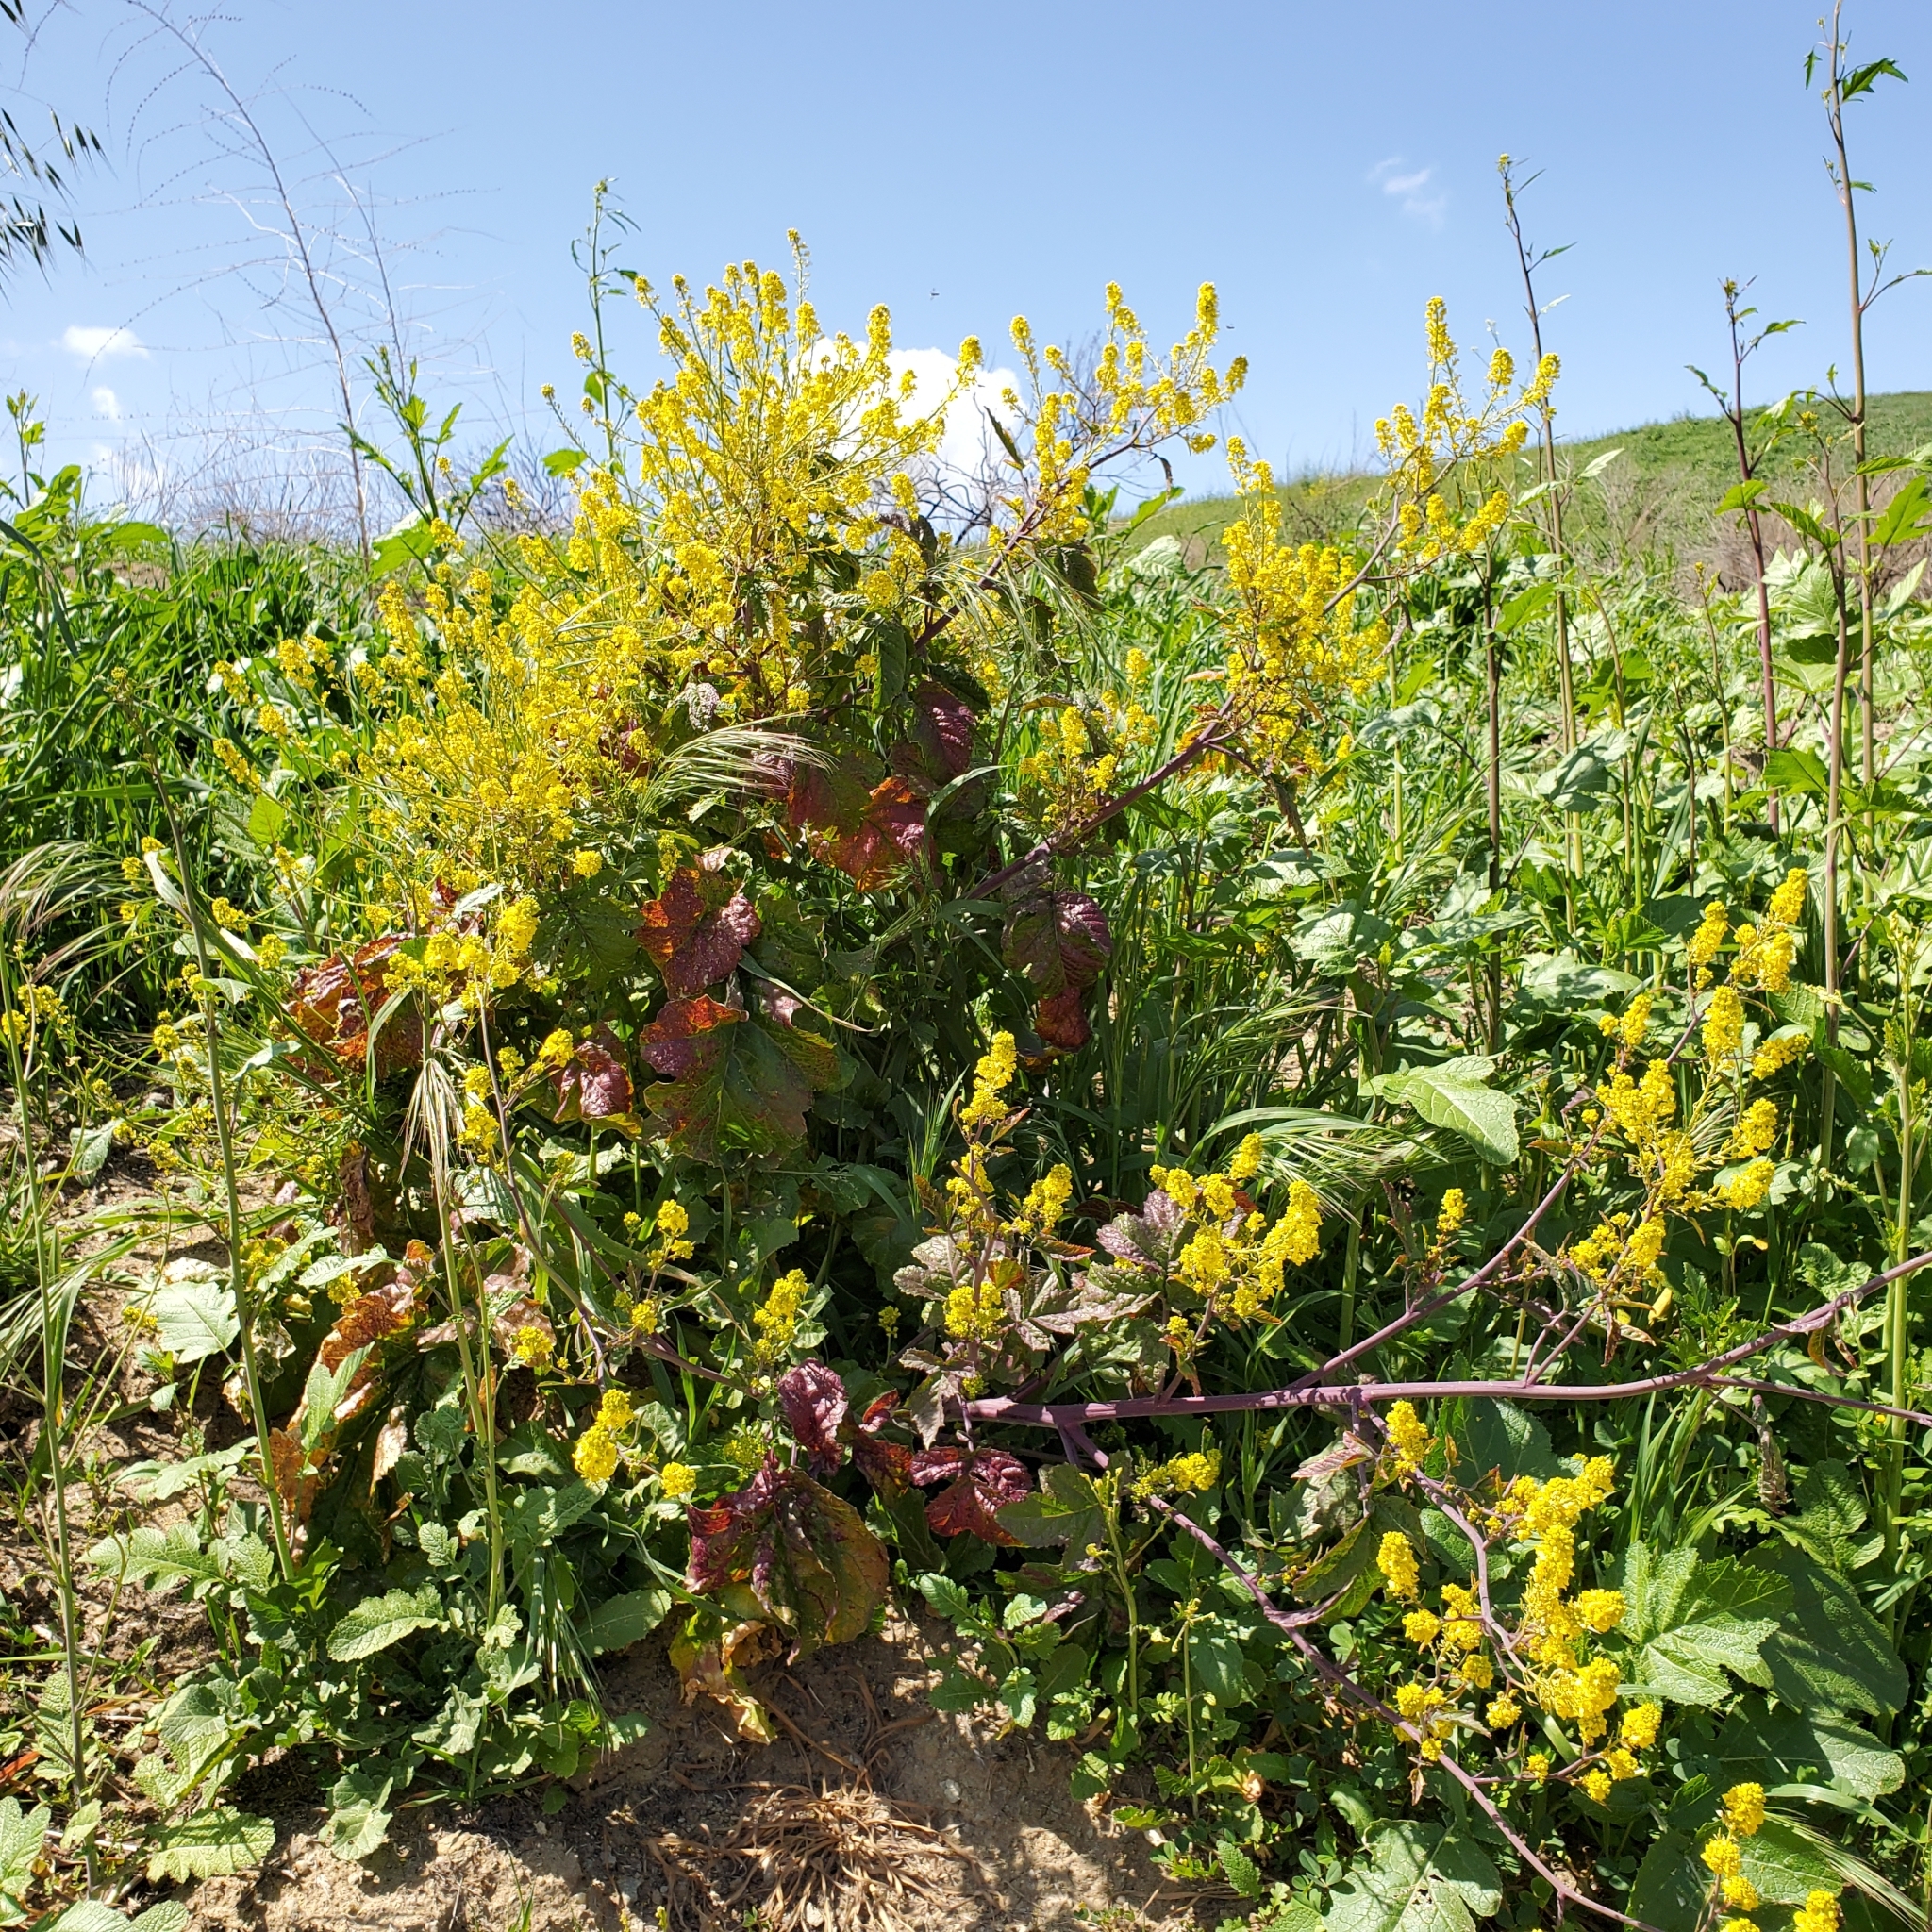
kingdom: Plantae
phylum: Tracheophyta
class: Magnoliopsida
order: Brassicales
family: Brassicaceae
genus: Brassica
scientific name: Brassica nigra
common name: Black mustard
